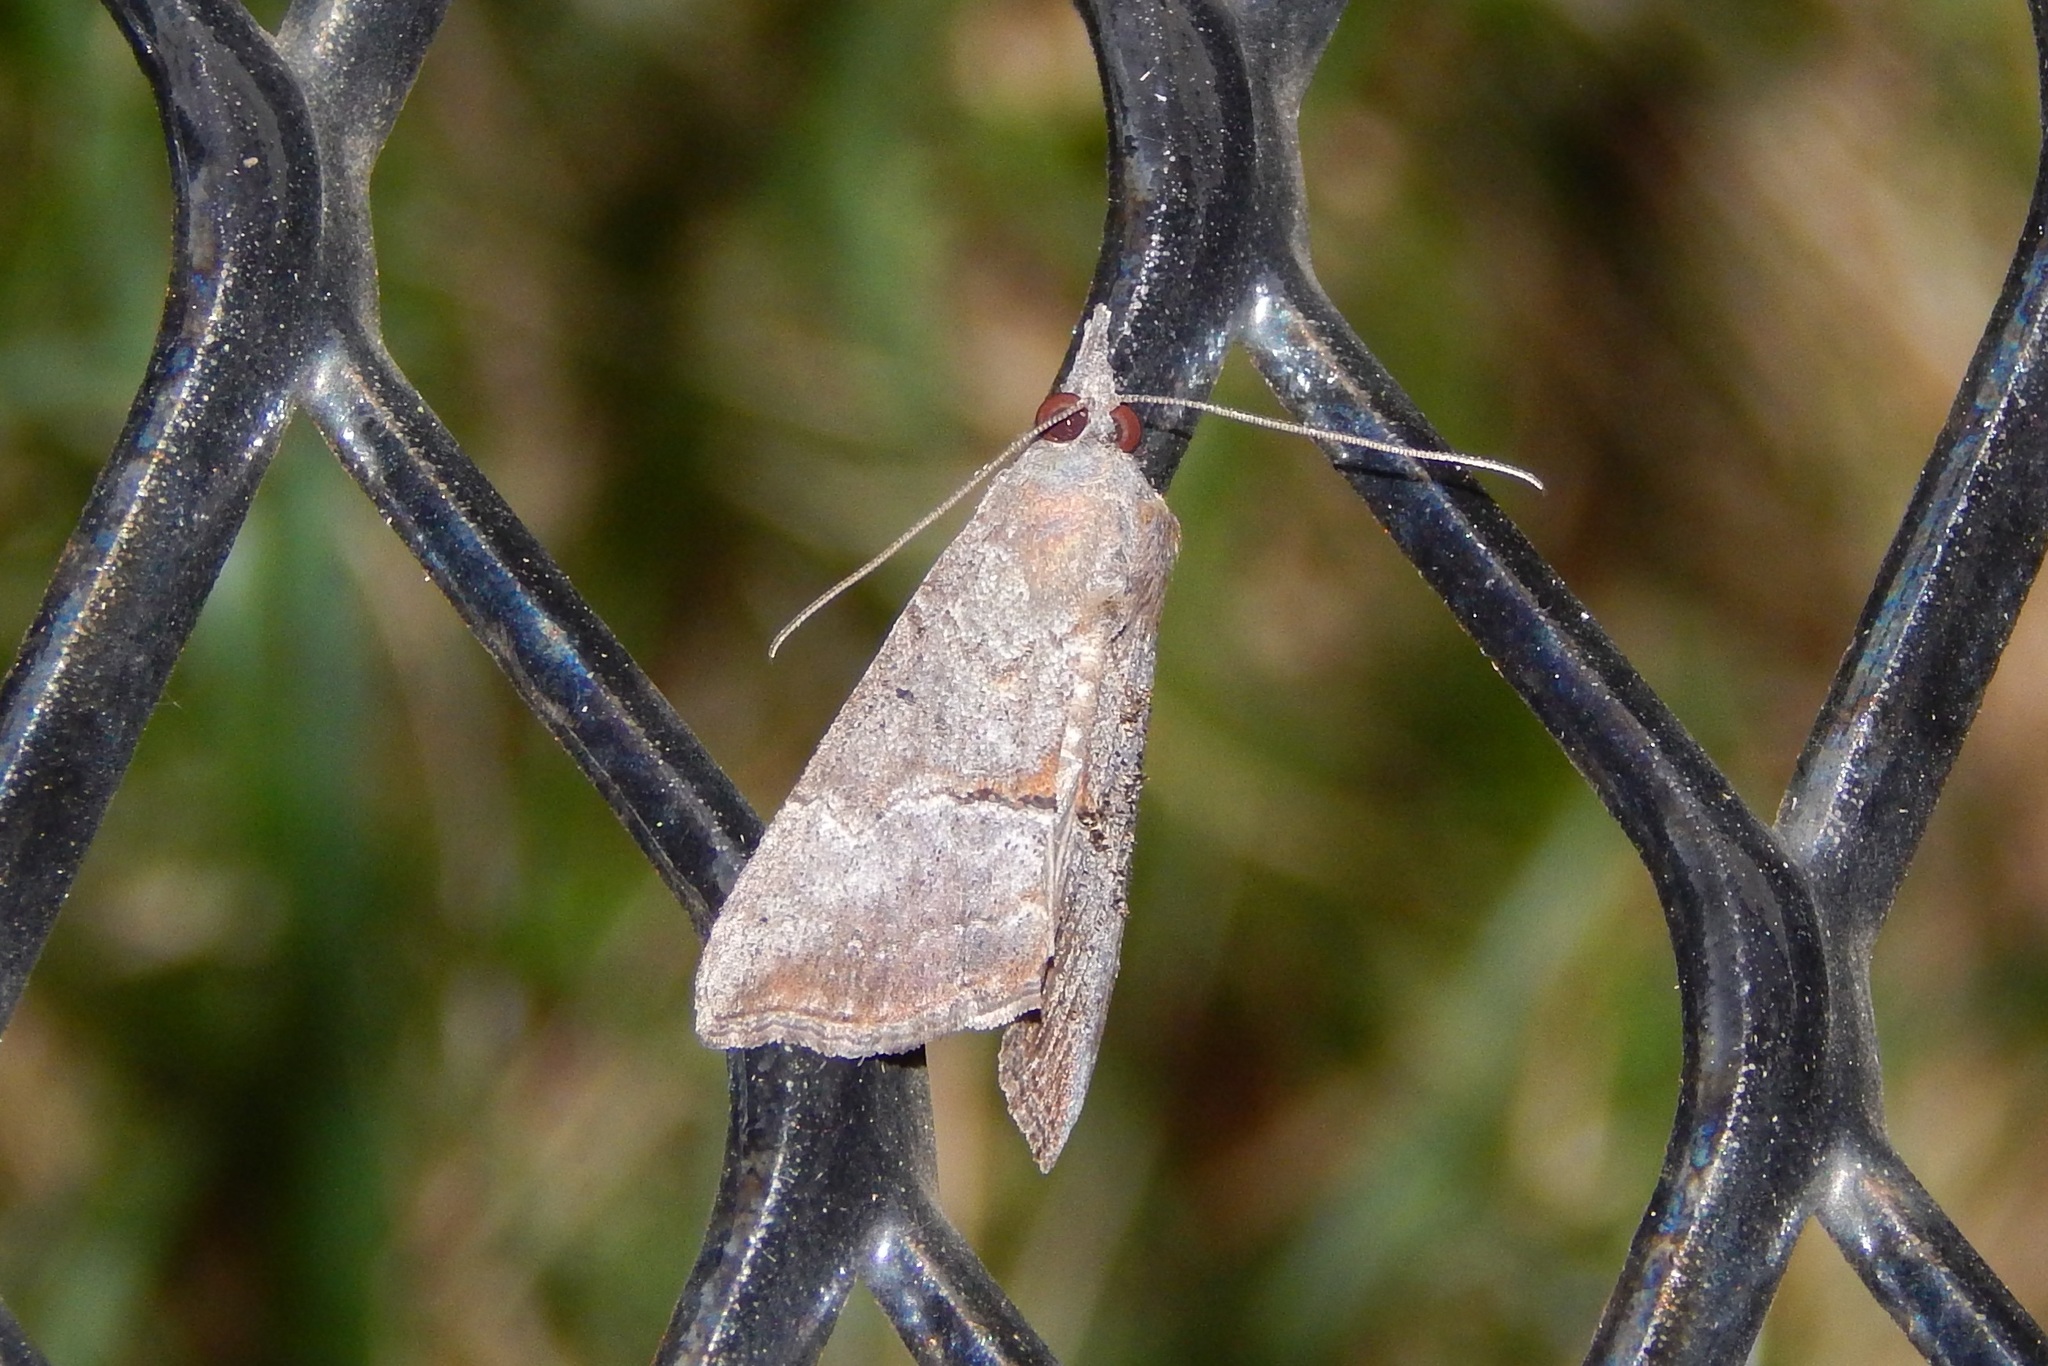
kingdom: Animalia
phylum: Arthropoda
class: Insecta
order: Lepidoptera
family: Erebidae
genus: Hypena
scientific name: Hypena scabra
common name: Green cloverworm
